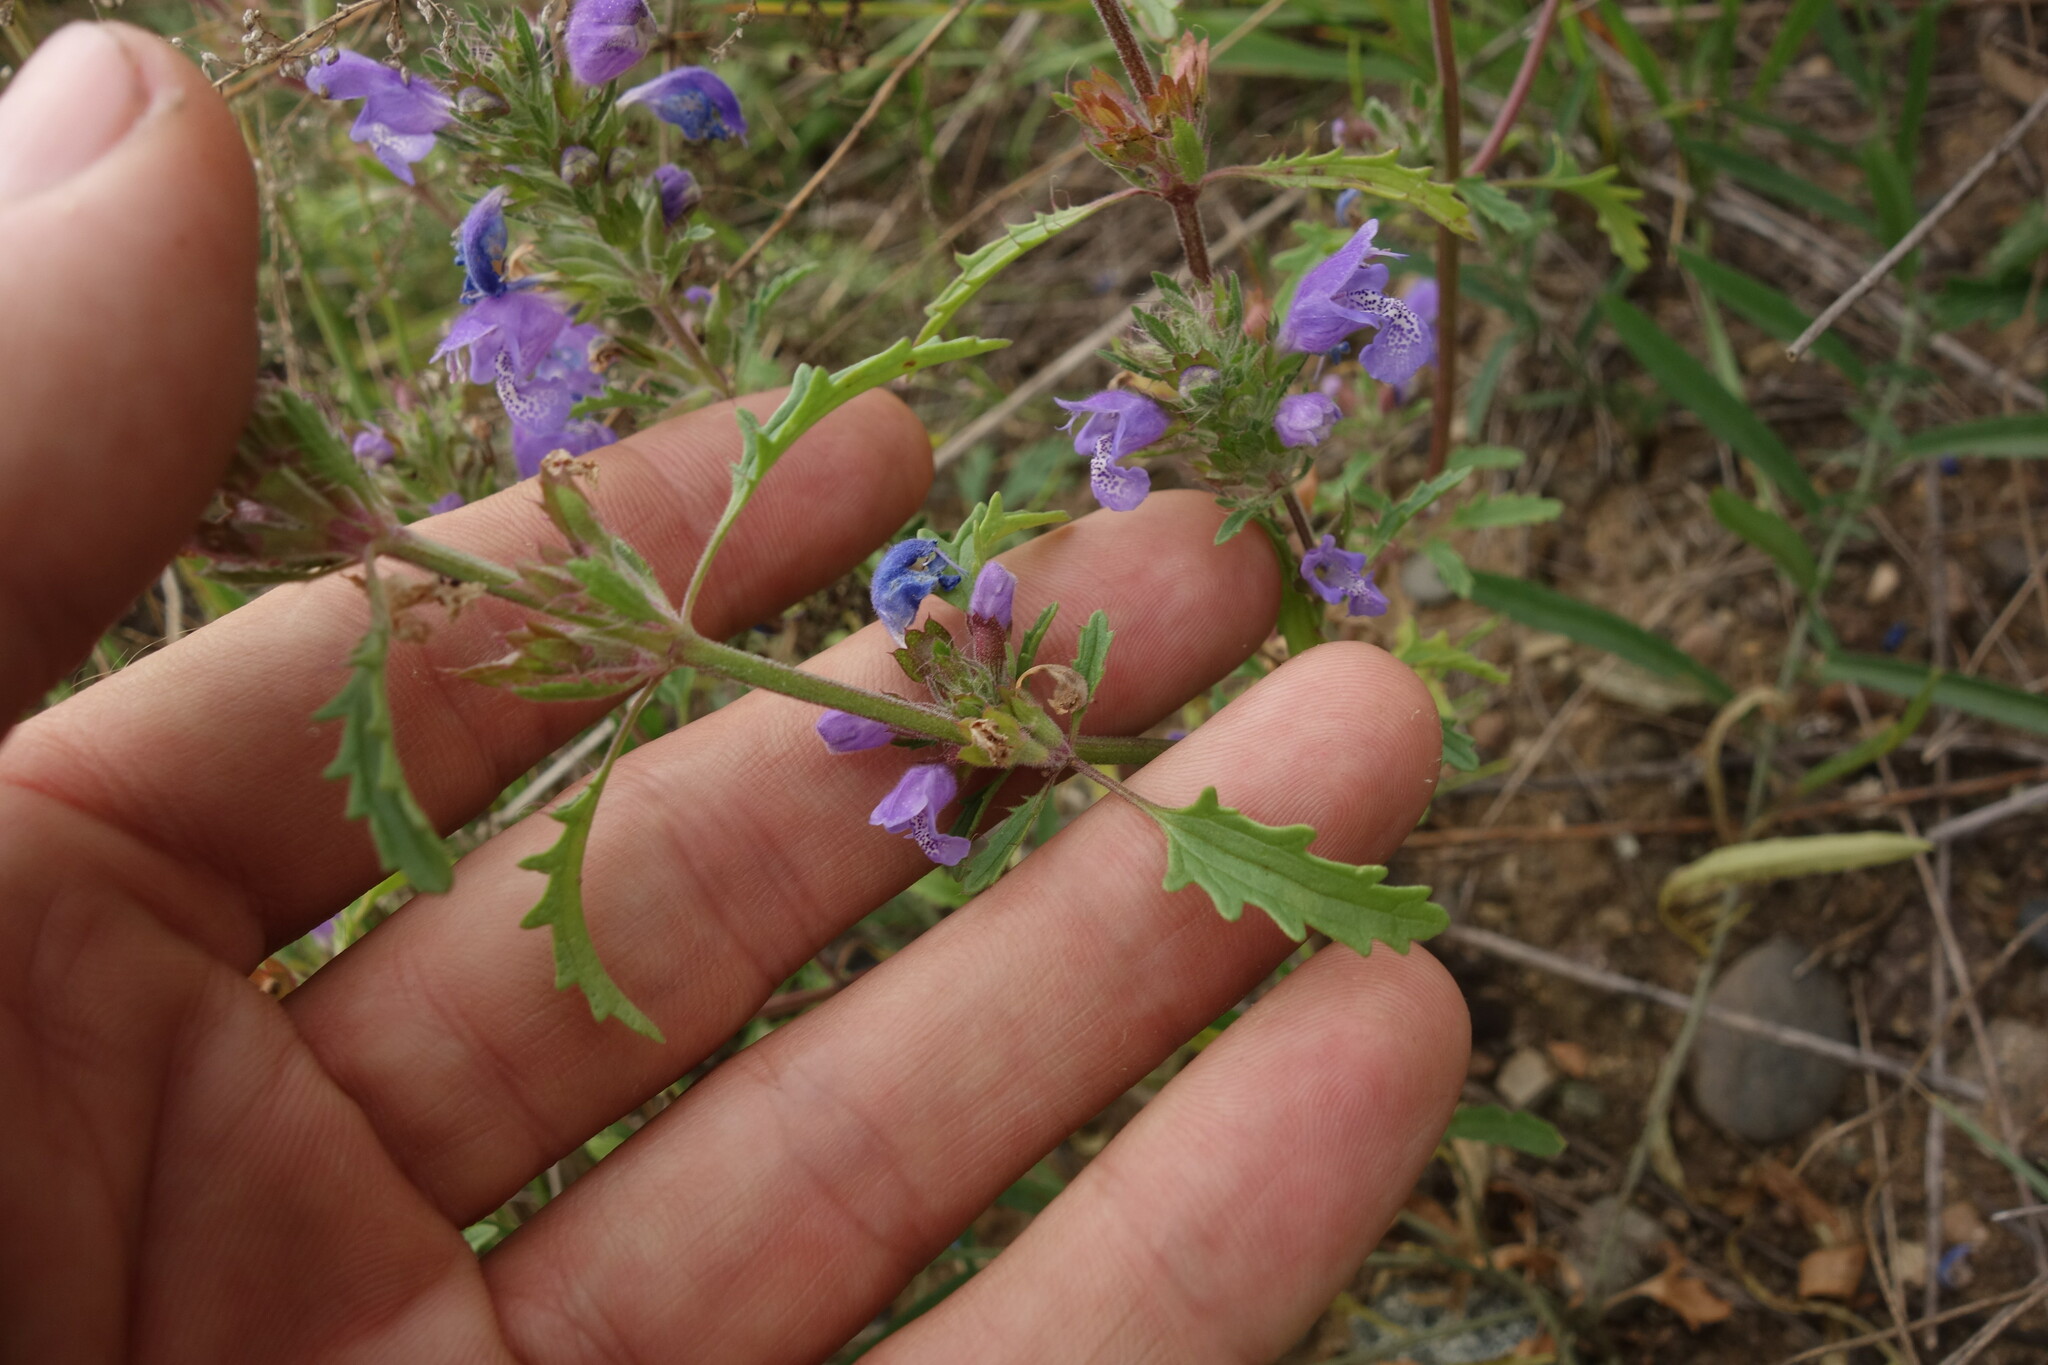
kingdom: Plantae
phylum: Tracheophyta
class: Magnoliopsida
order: Lamiales
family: Lamiaceae
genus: Dracocephalum
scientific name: Dracocephalum olchonense
